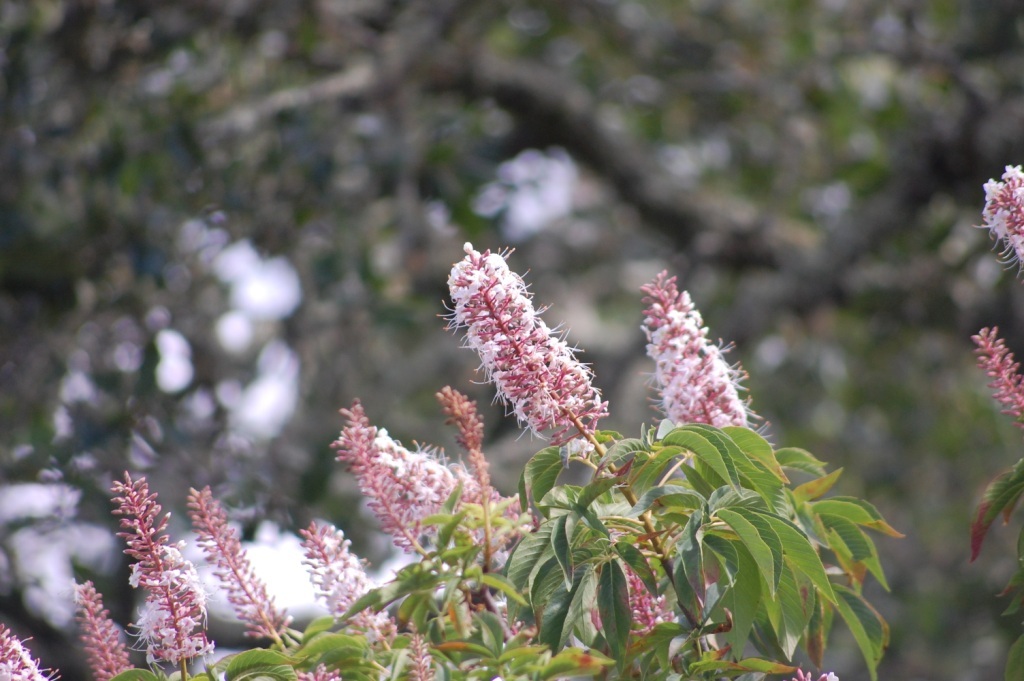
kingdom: Plantae
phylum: Tracheophyta
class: Magnoliopsida
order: Sapindales
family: Sapindaceae
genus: Aesculus
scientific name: Aesculus californica
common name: California buckeye
